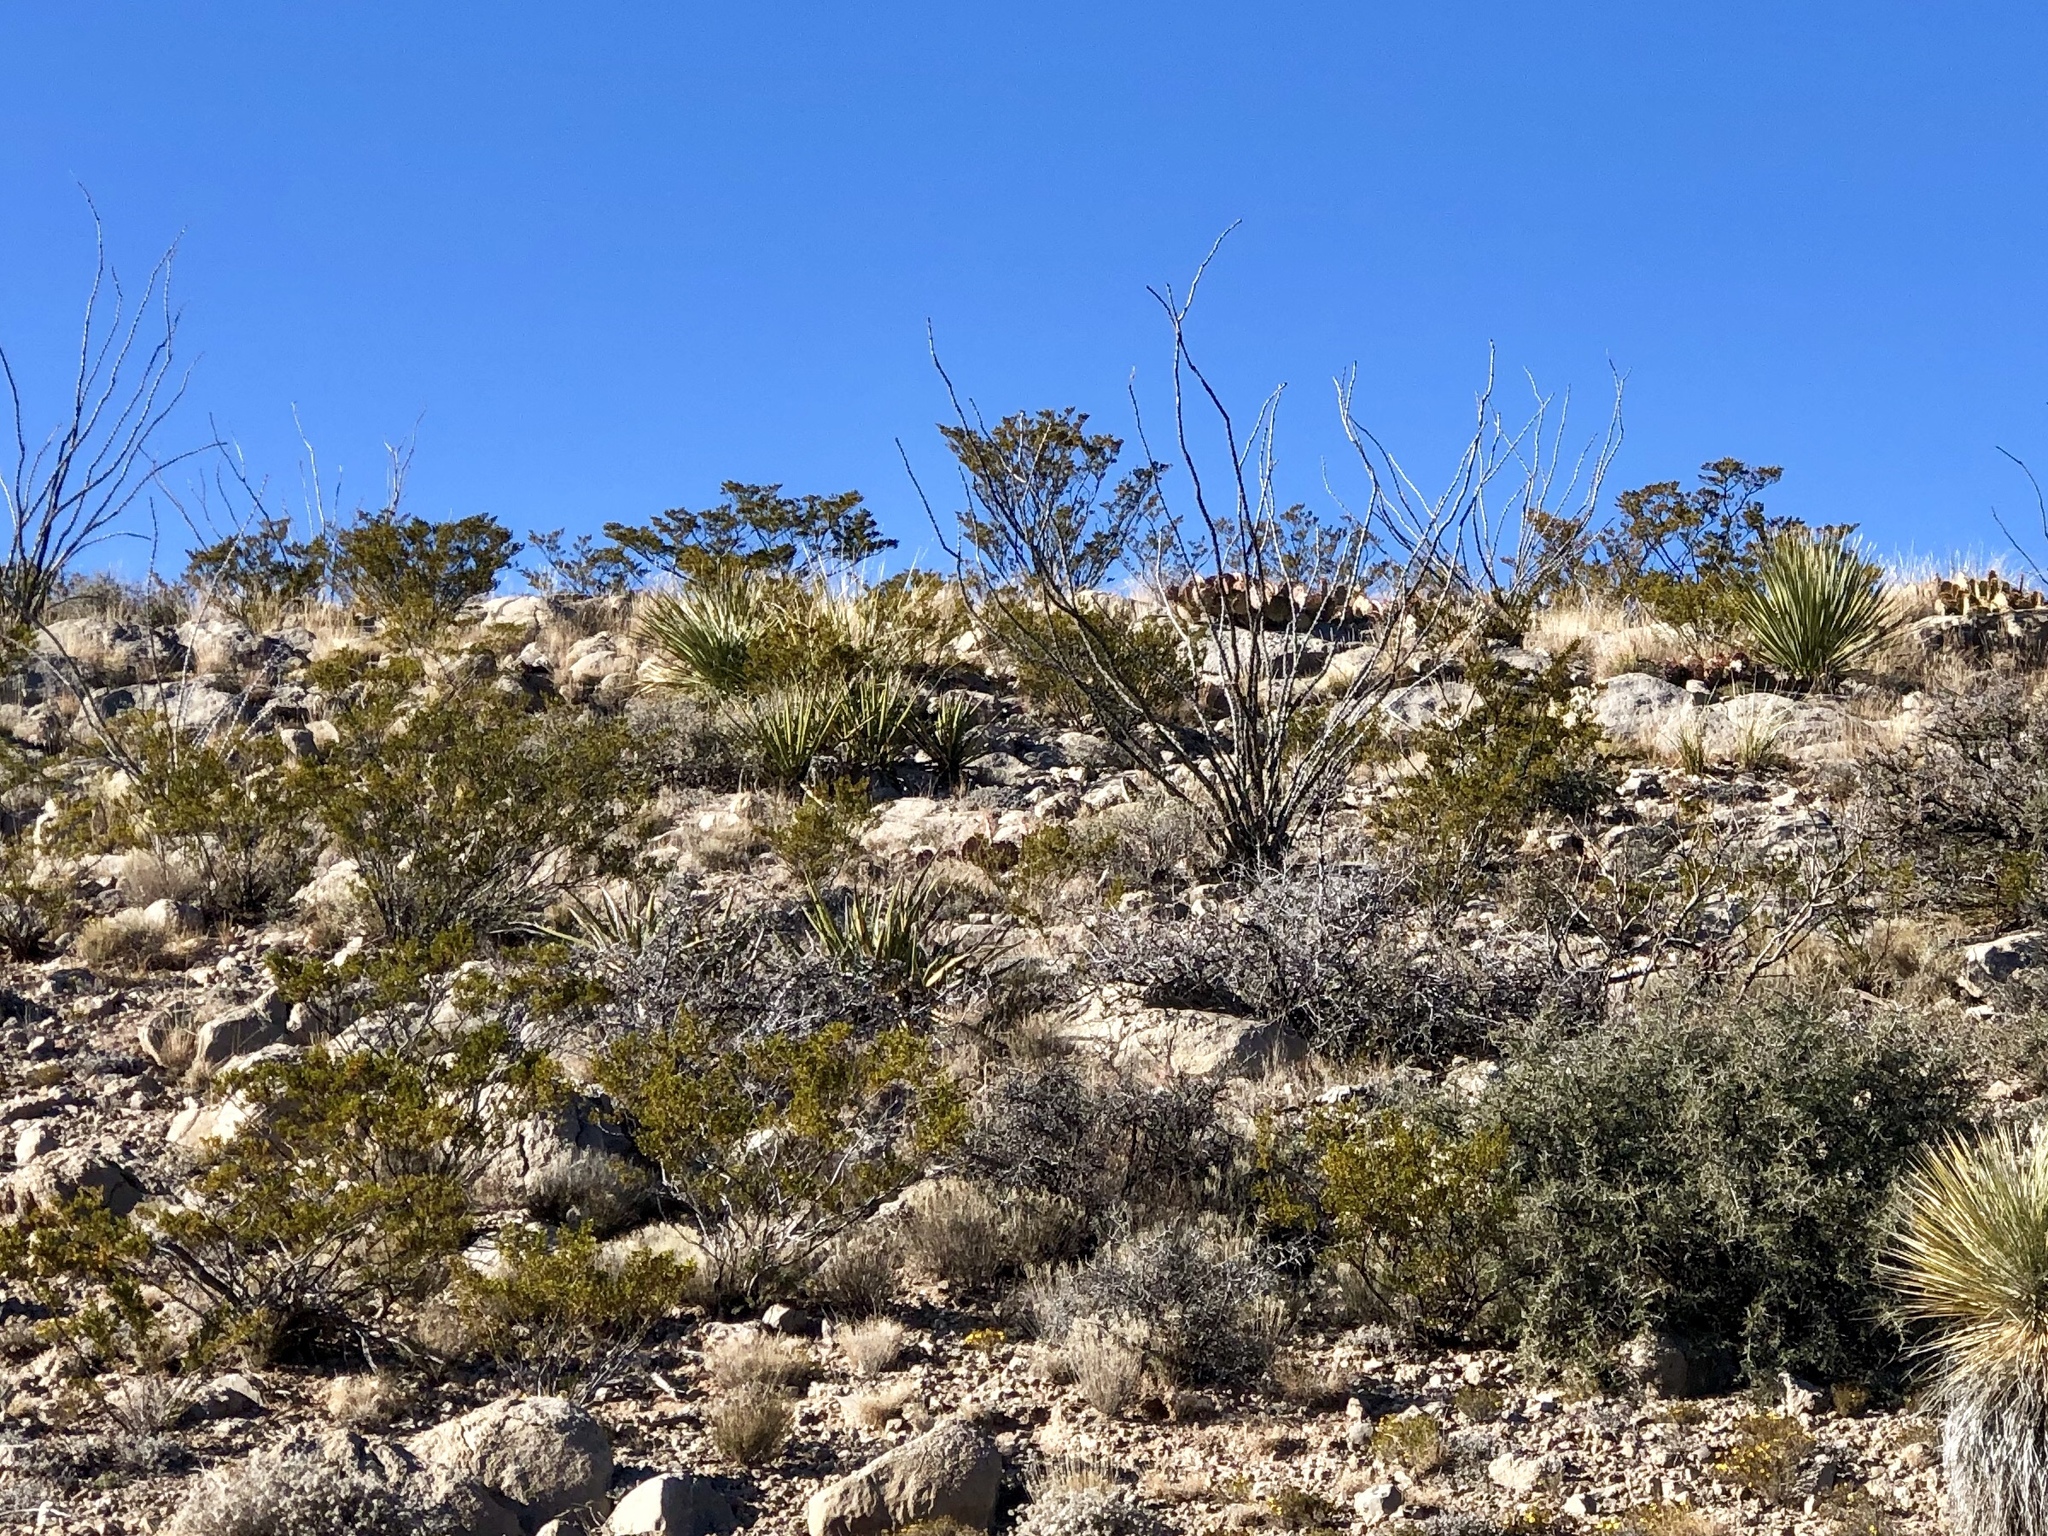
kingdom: Plantae
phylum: Tracheophyta
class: Magnoliopsida
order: Zygophyllales
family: Zygophyllaceae
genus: Larrea
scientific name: Larrea tridentata
